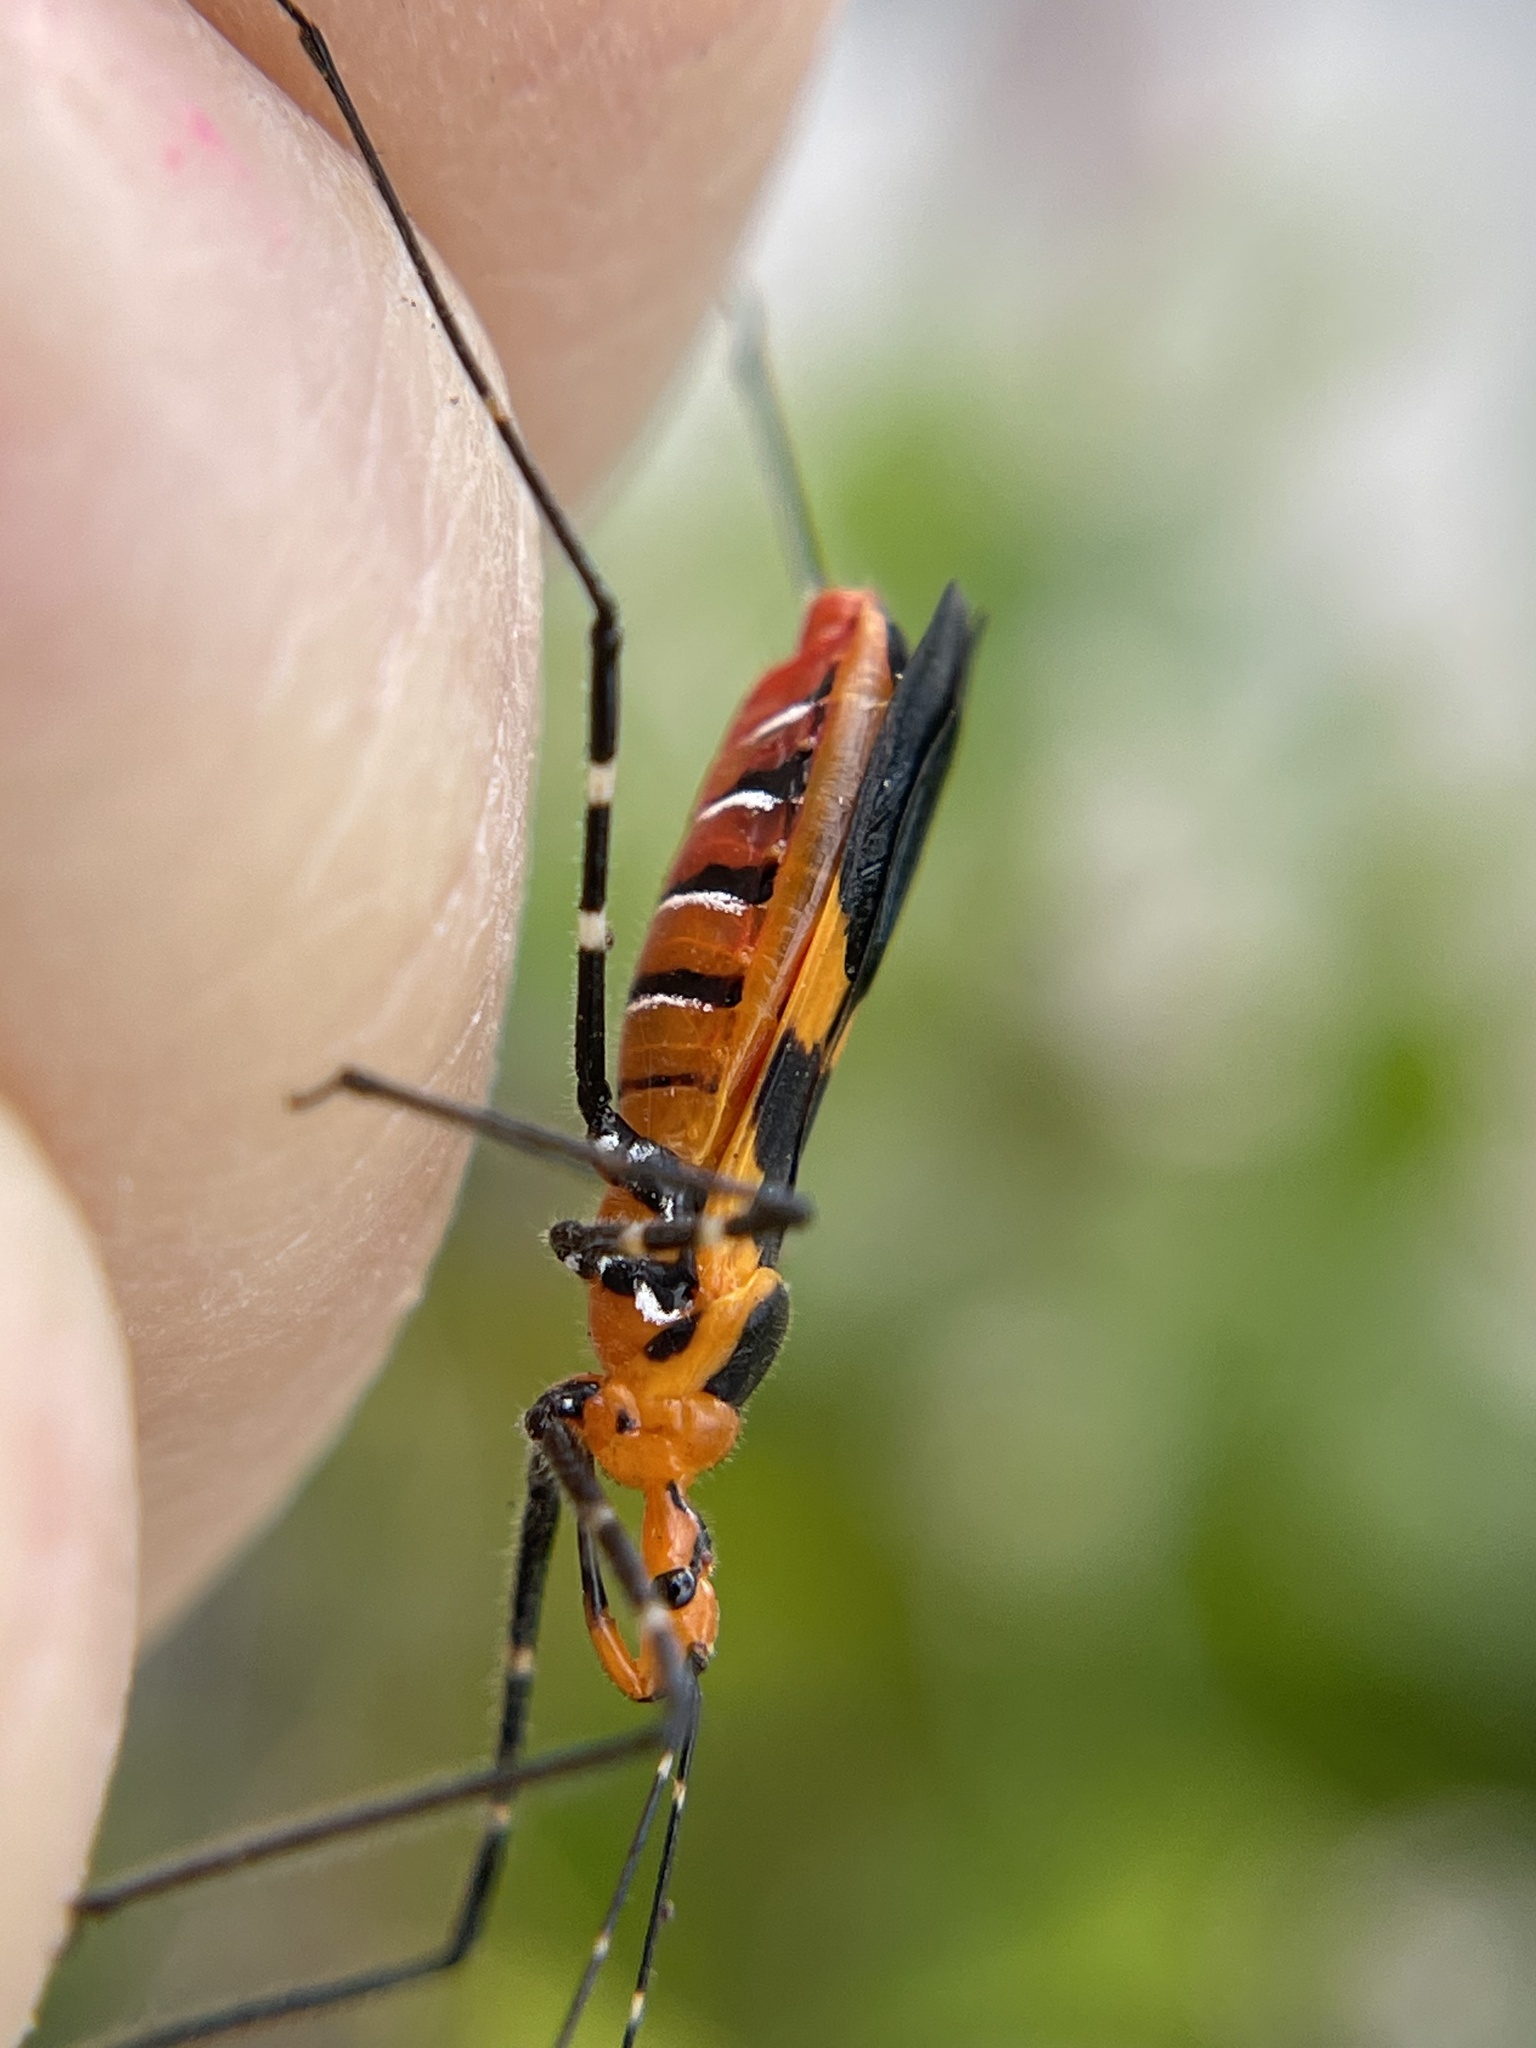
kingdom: Animalia
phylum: Arthropoda
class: Insecta
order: Hemiptera
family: Reduviidae
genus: Zelus
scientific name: Zelus longipes
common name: Milkweed assassin bug
